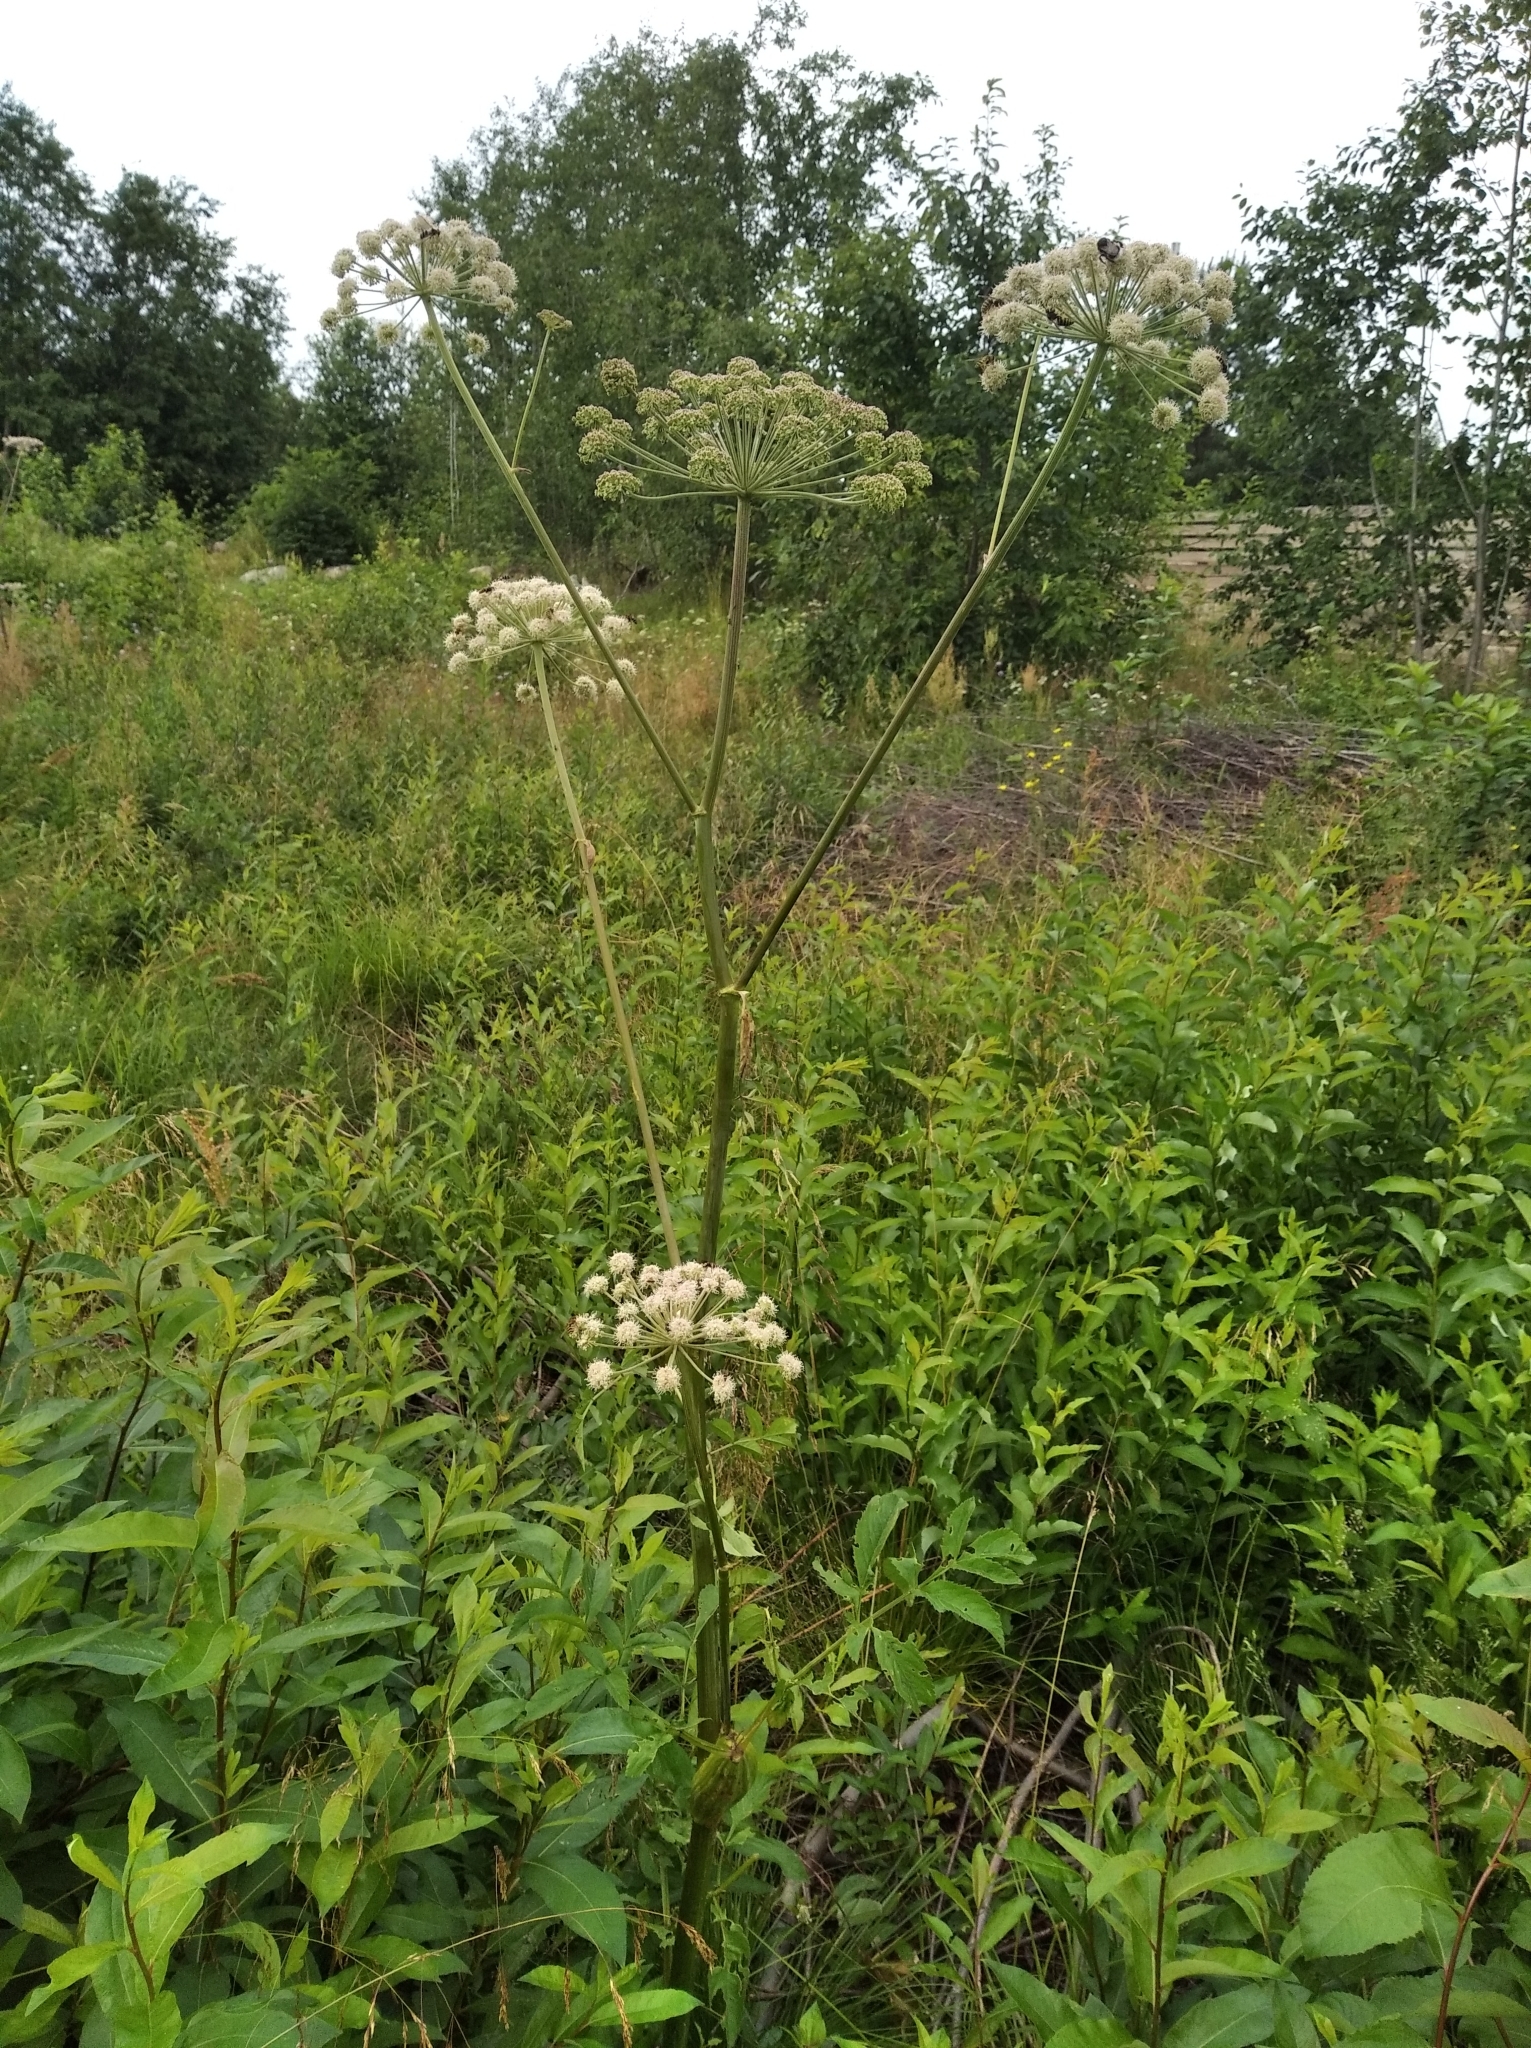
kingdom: Plantae
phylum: Tracheophyta
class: Magnoliopsida
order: Apiales
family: Apiaceae
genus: Angelica
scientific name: Angelica sylvestris
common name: Wild angelica
